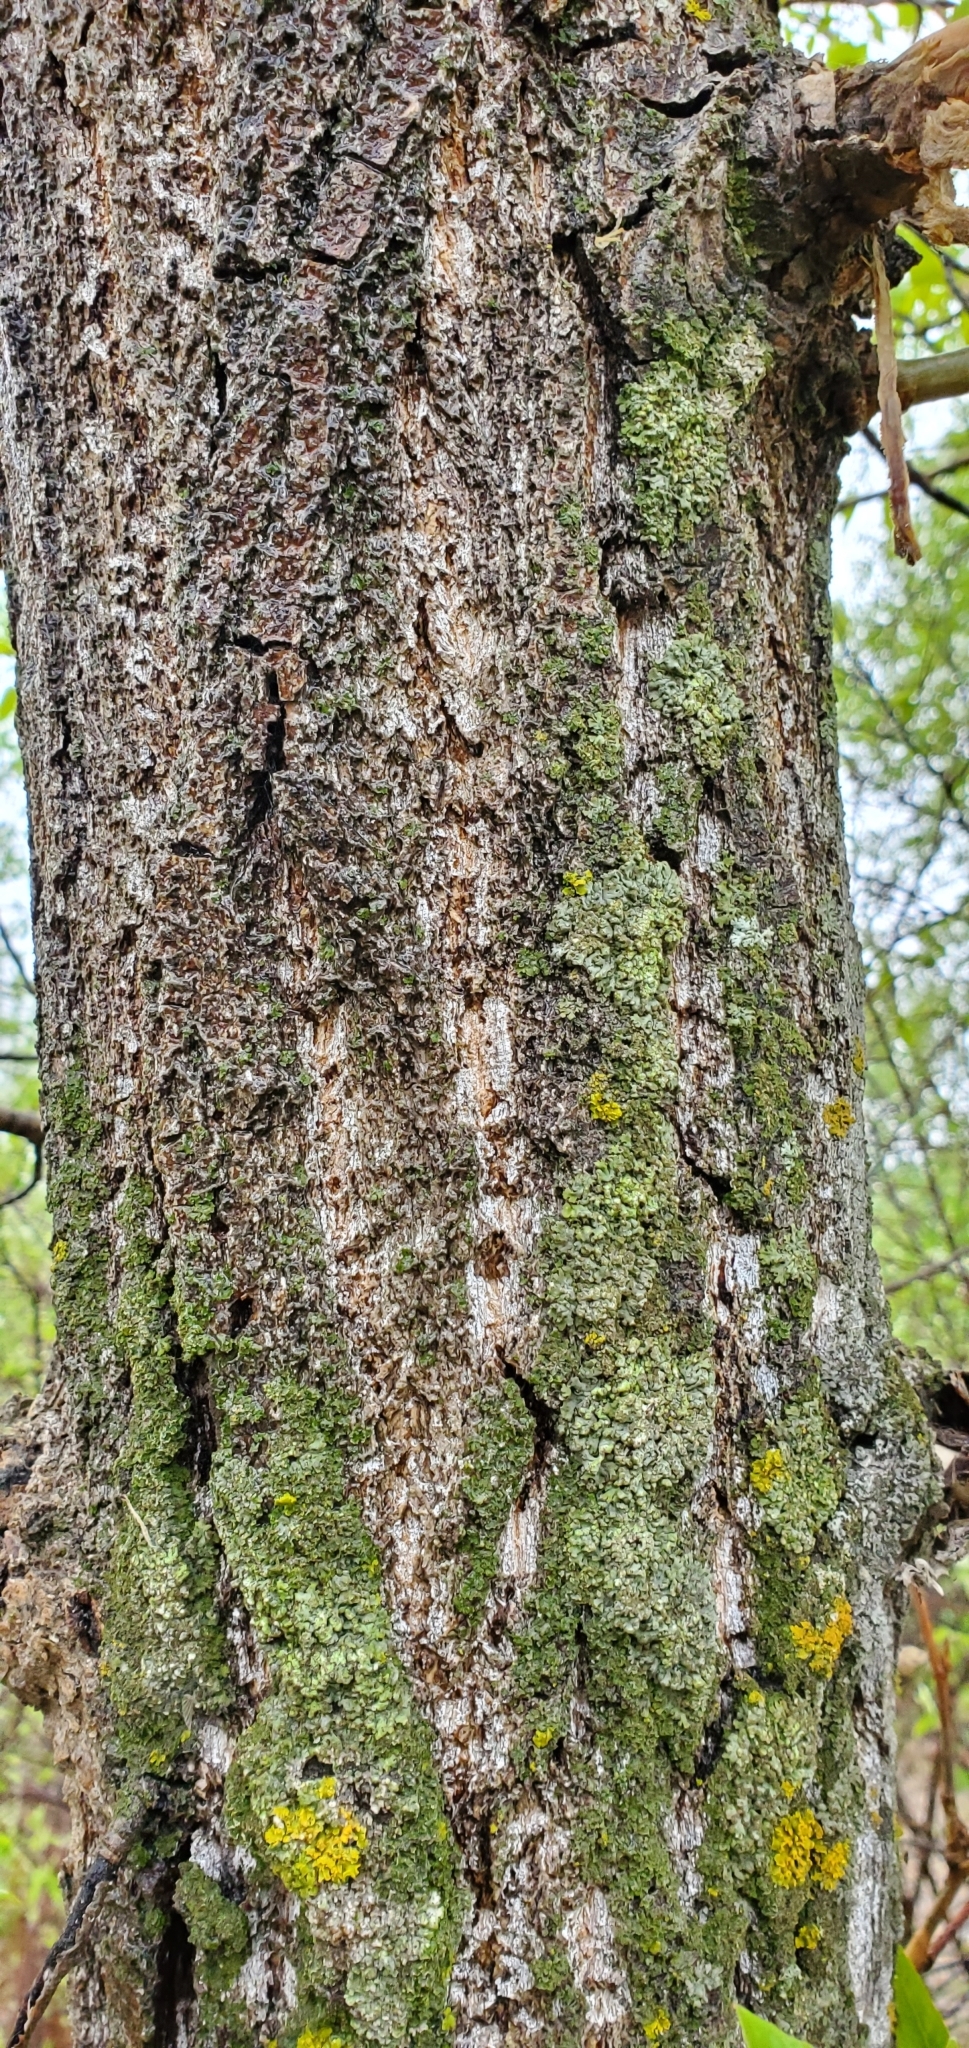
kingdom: Plantae
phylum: Tracheophyta
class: Magnoliopsida
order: Malpighiales
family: Salicaceae
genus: Populus
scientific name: Populus balsamifera
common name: Balsam poplar
